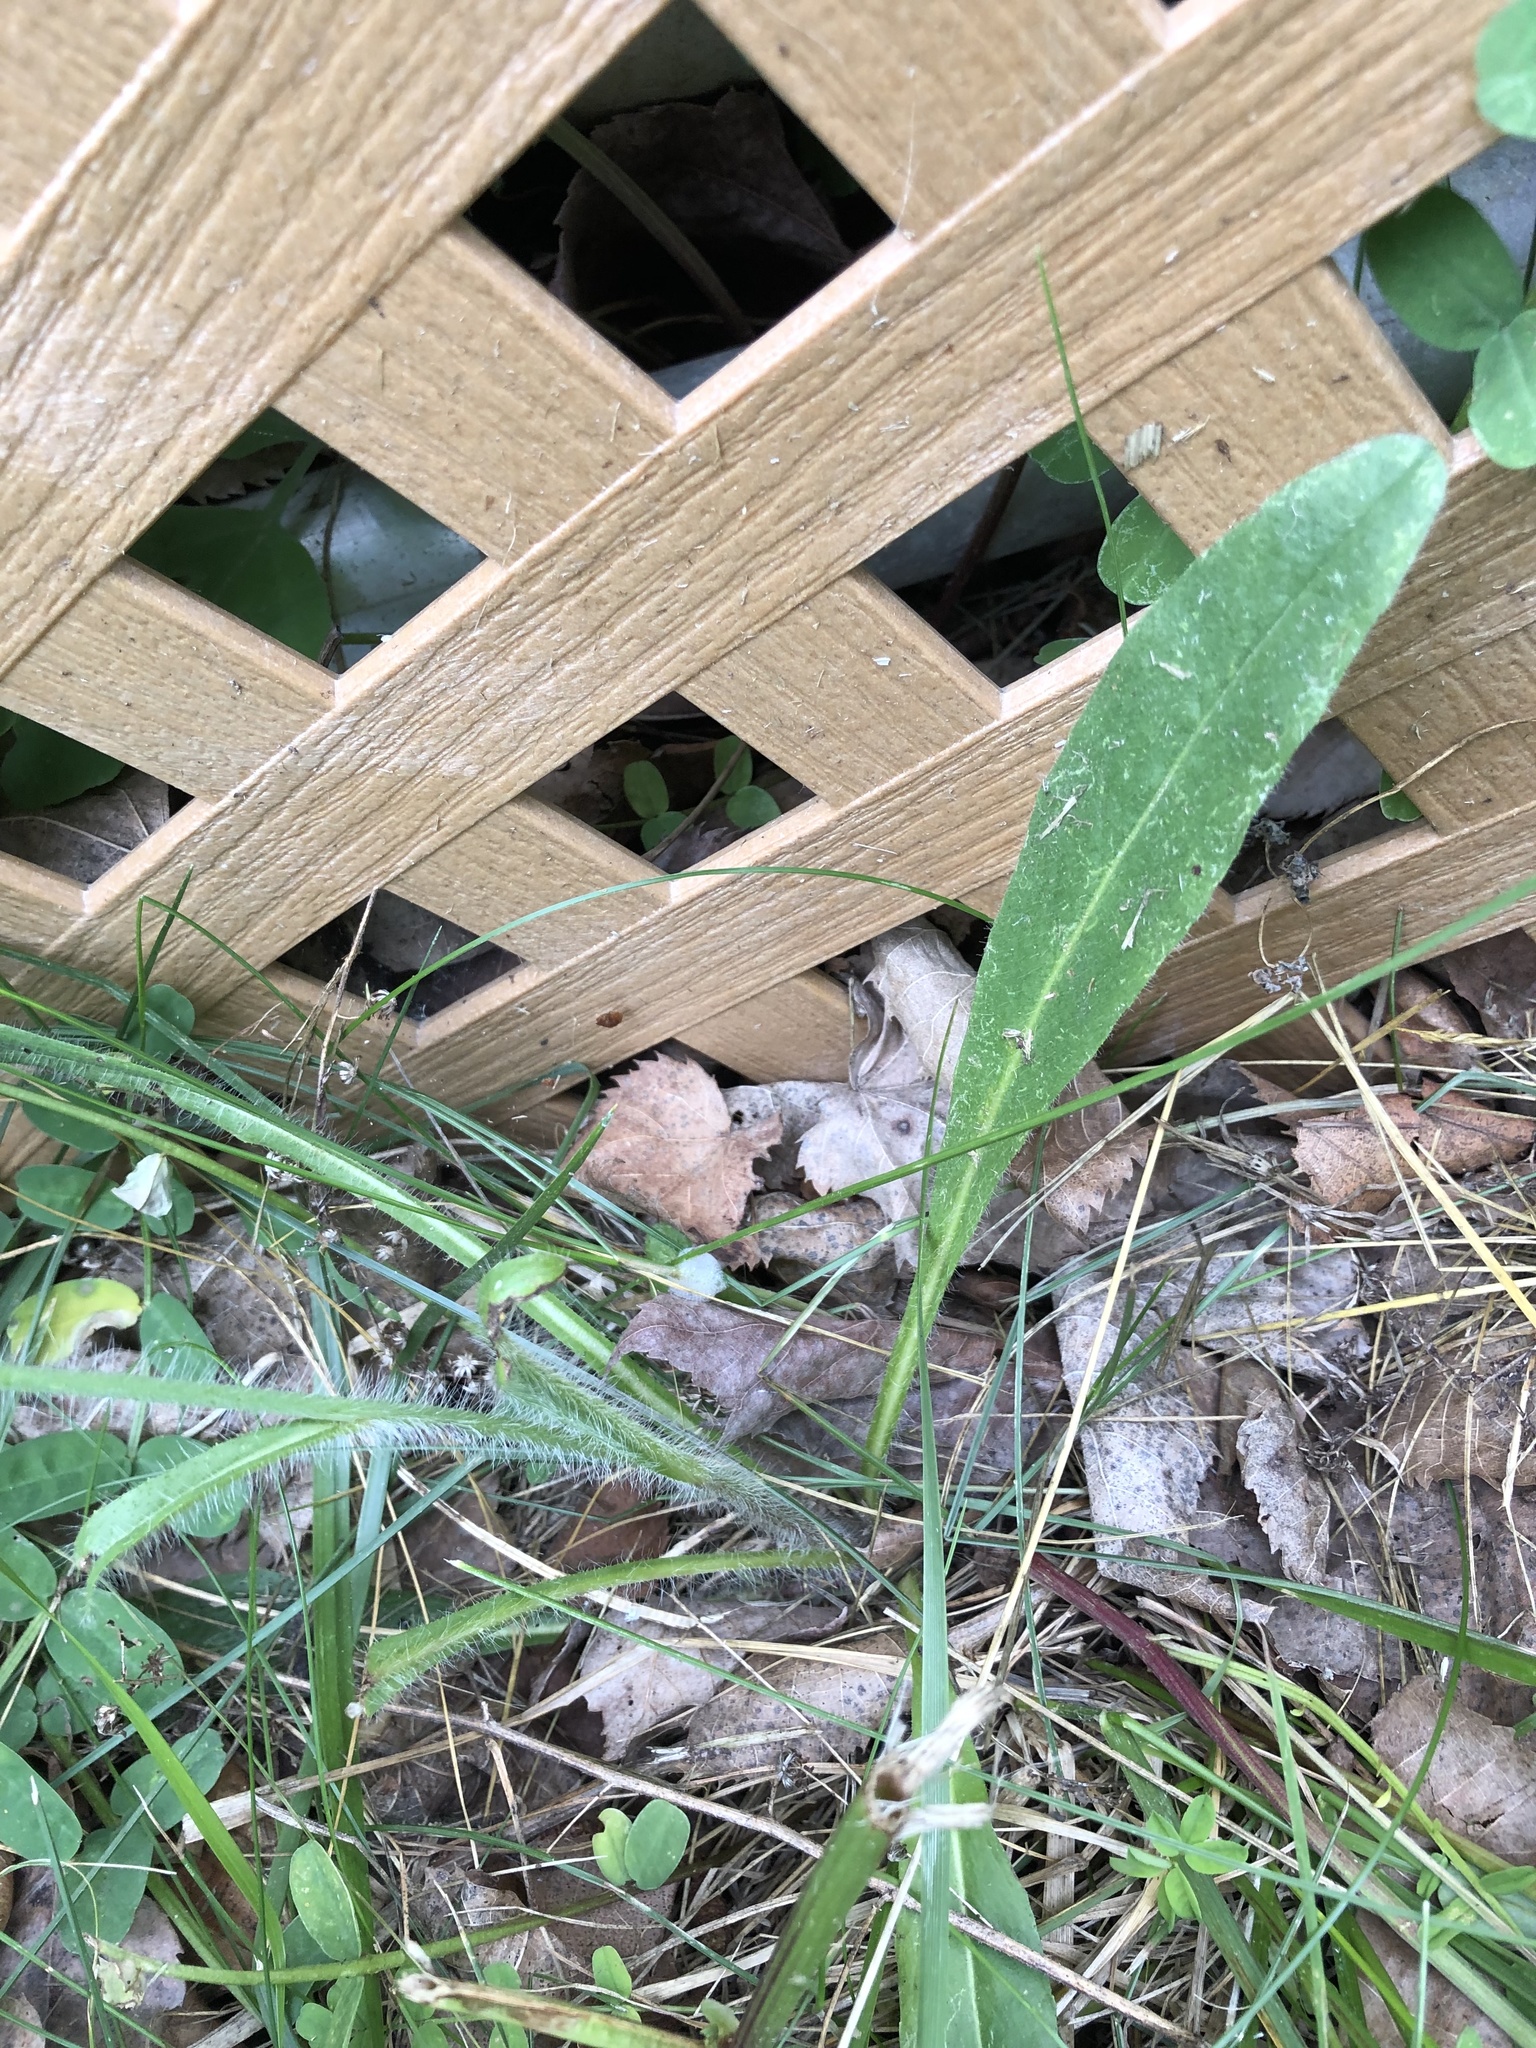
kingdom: Plantae
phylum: Tracheophyta
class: Magnoliopsida
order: Asterales
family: Asteraceae
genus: Pilosella
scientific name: Pilosella aurantiaca
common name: Fox-and-cubs
